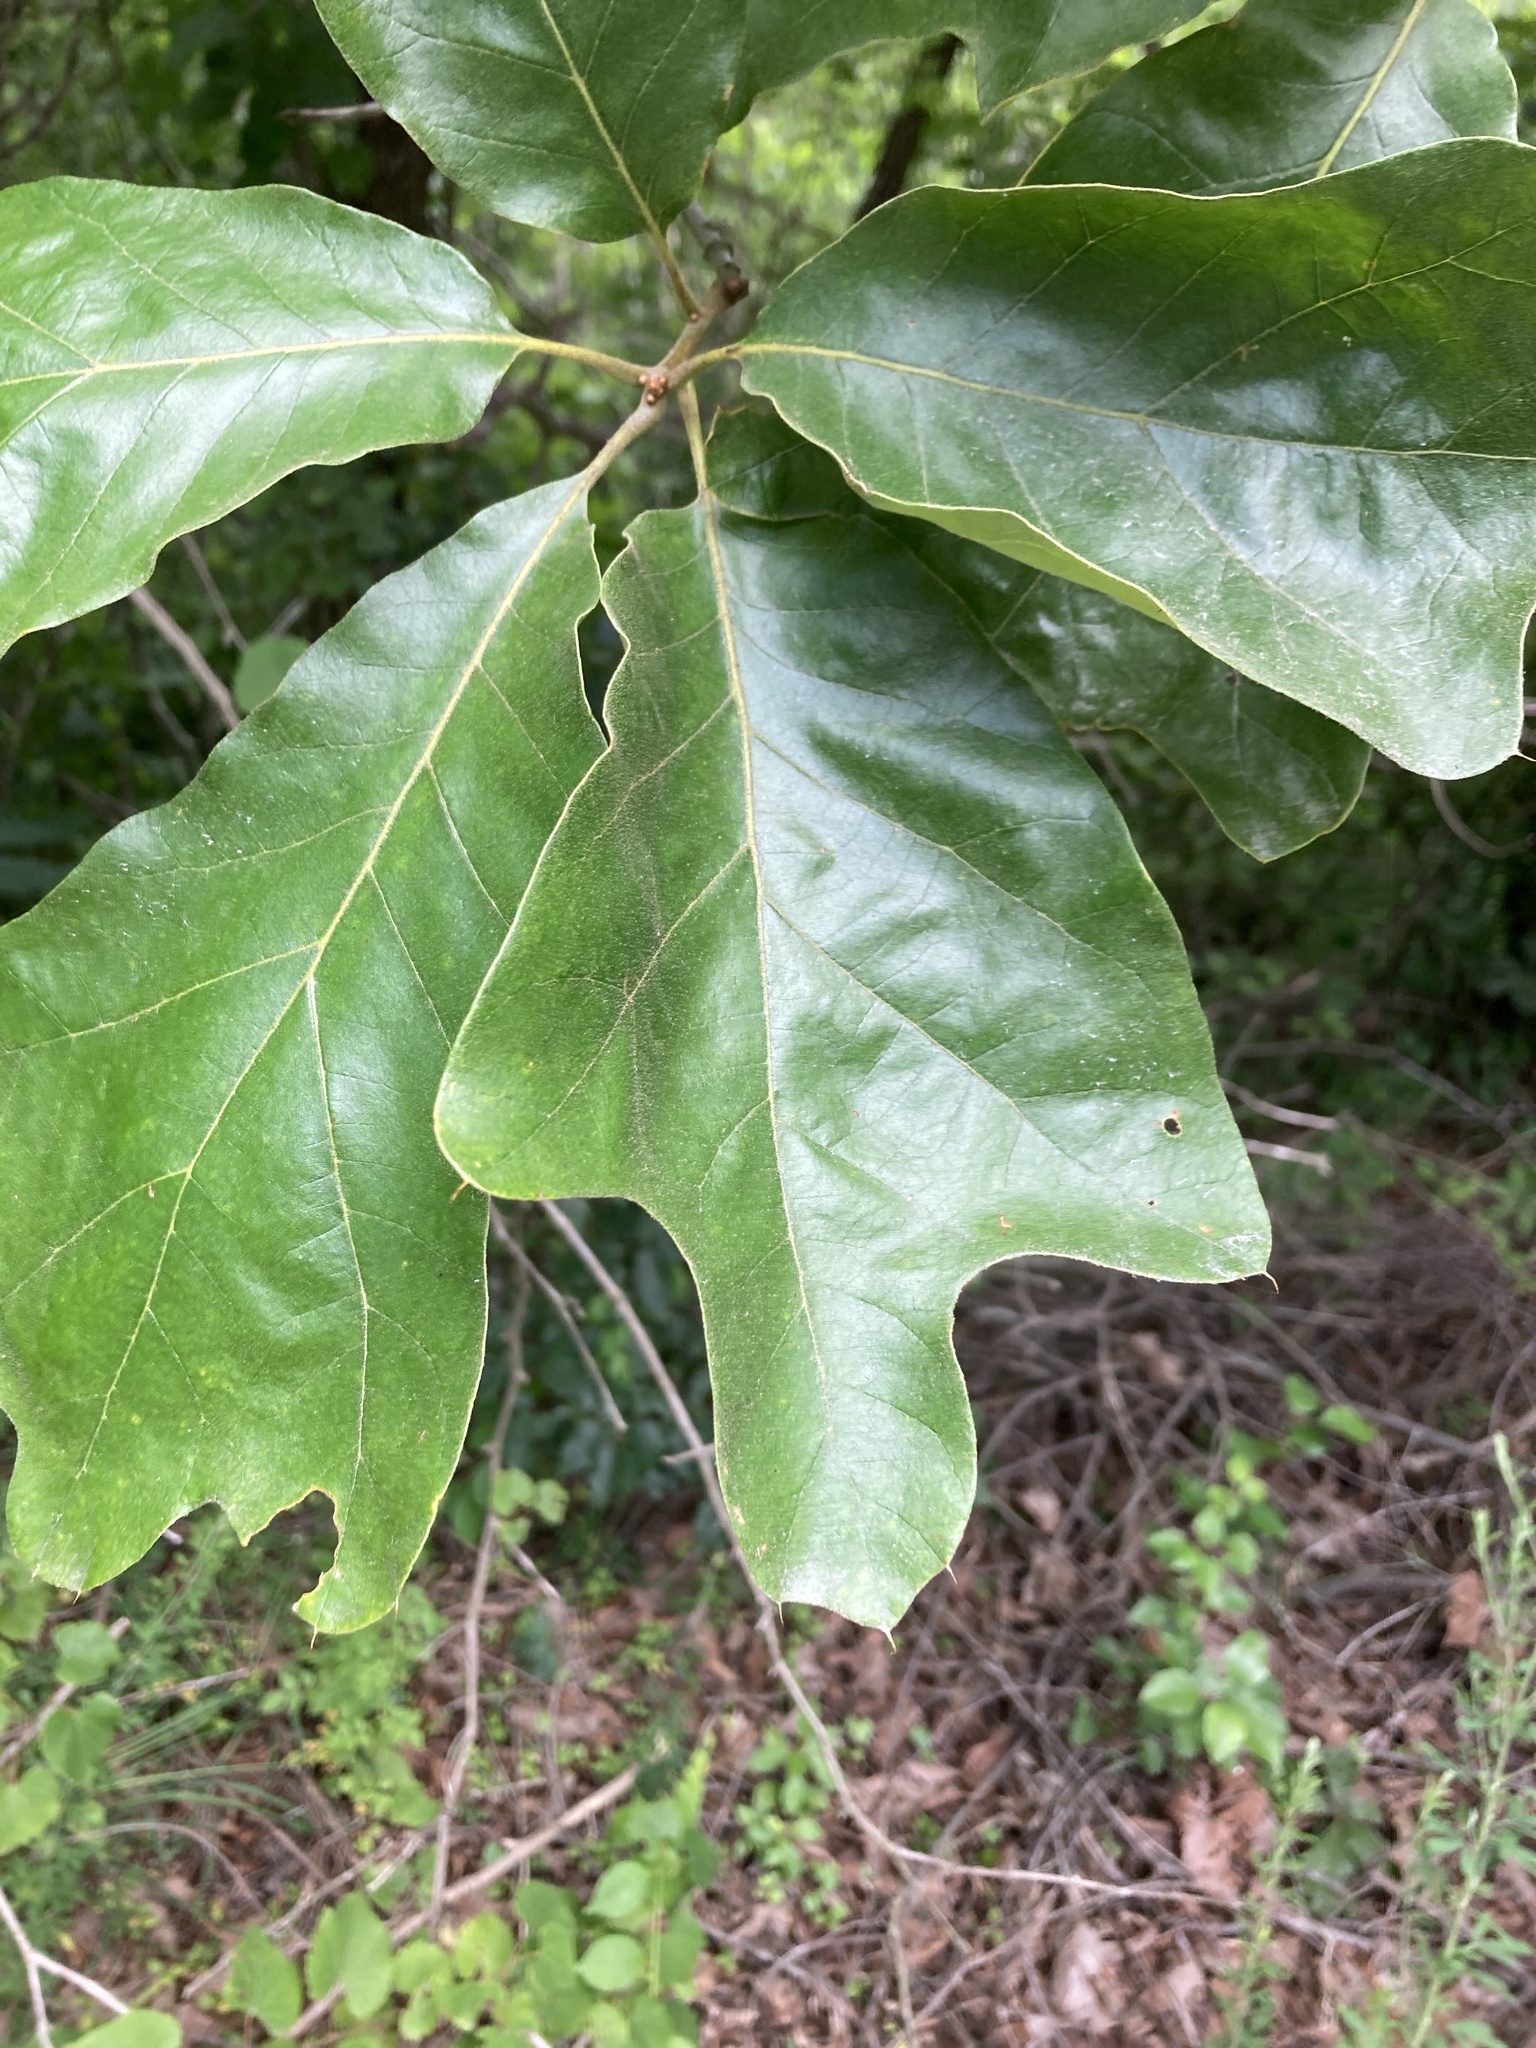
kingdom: Plantae
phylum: Tracheophyta
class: Magnoliopsida
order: Fagales
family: Fagaceae
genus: Quercus
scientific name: Quercus falcata
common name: Southern red oak
